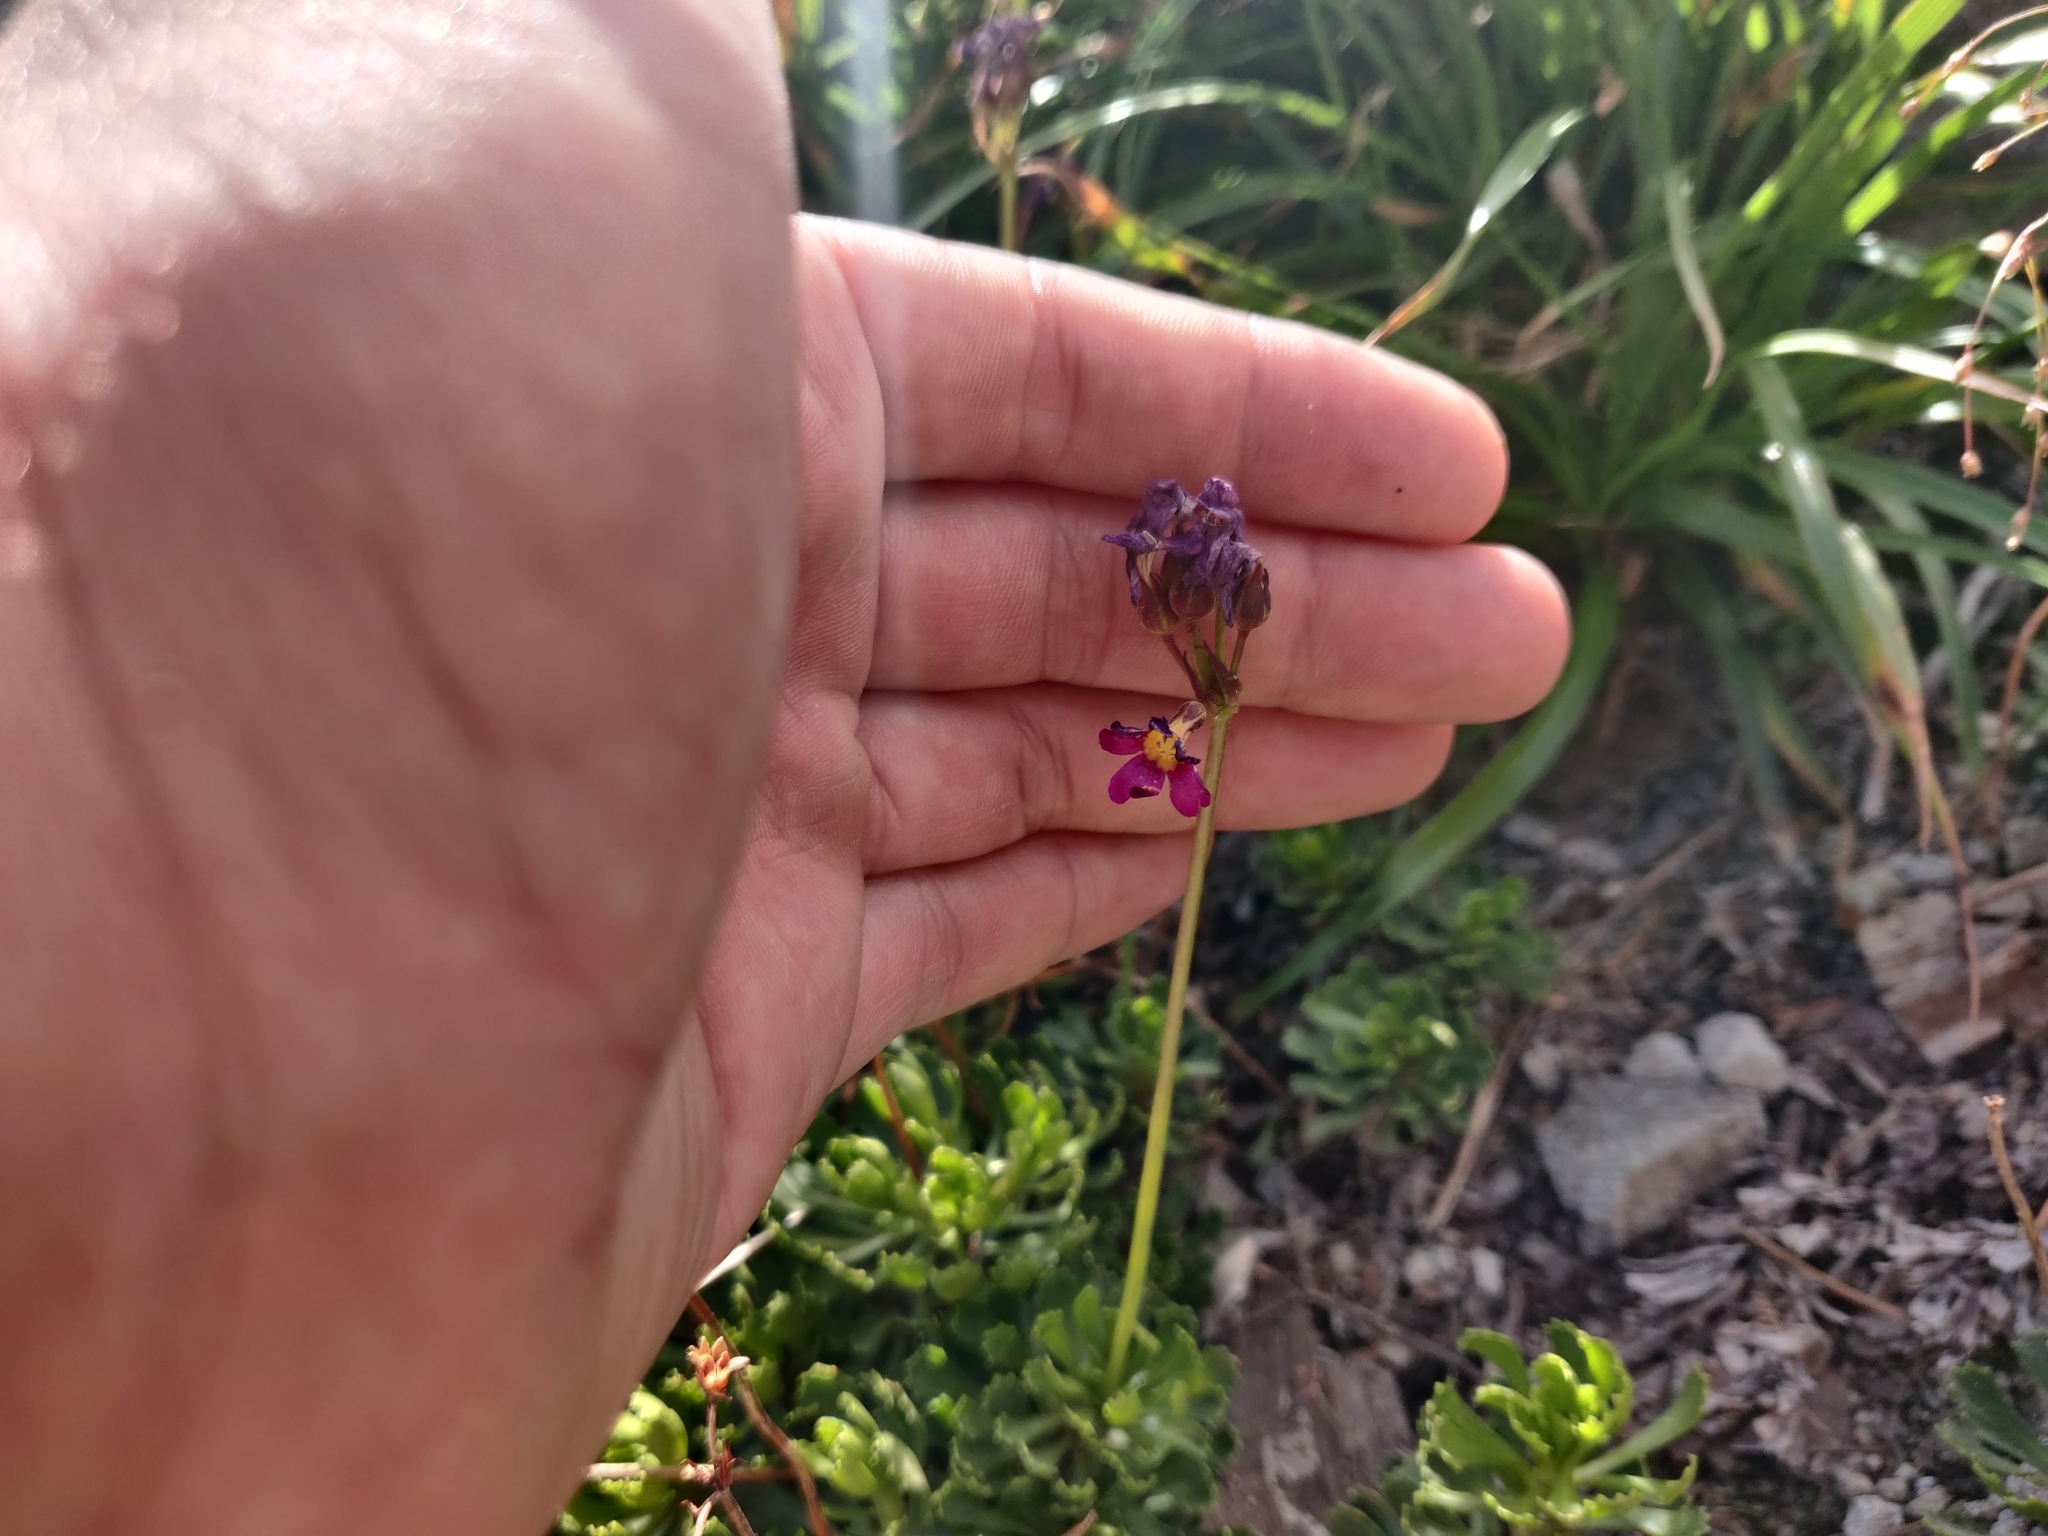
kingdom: Plantae
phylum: Tracheophyta
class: Magnoliopsida
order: Ericales
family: Primulaceae
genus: Primula
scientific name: Primula suffrutescens
